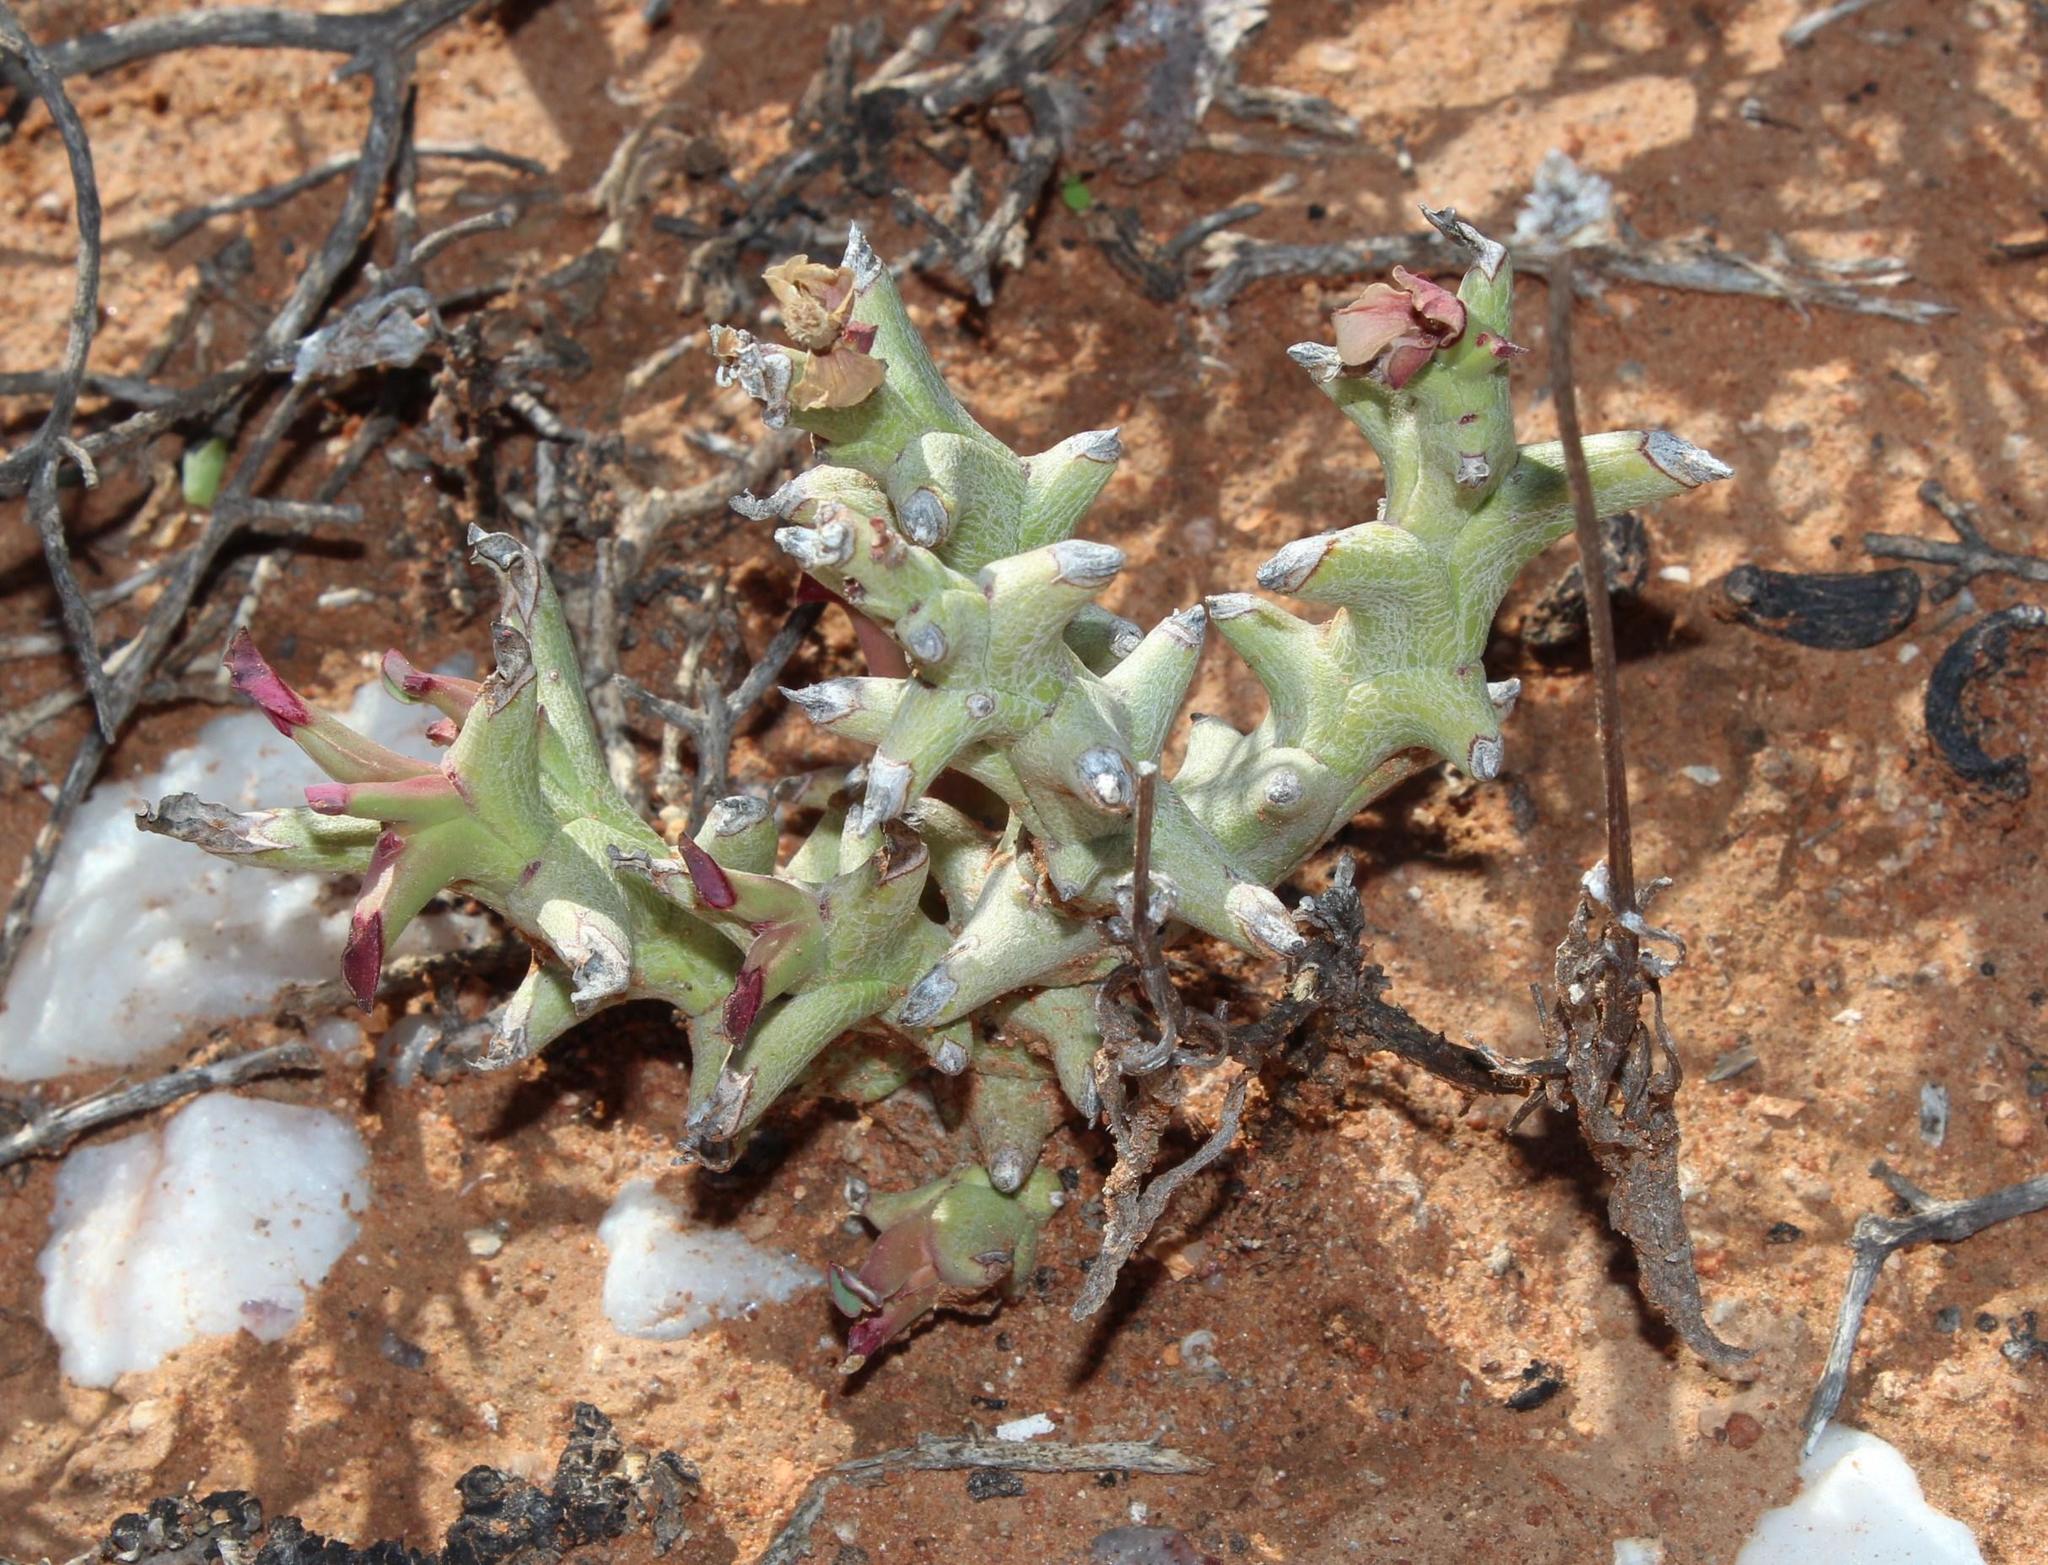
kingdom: Plantae
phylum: Tracheophyta
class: Magnoliopsida
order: Malpighiales
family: Euphorbiaceae
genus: Euphorbia
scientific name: Euphorbia hamata
